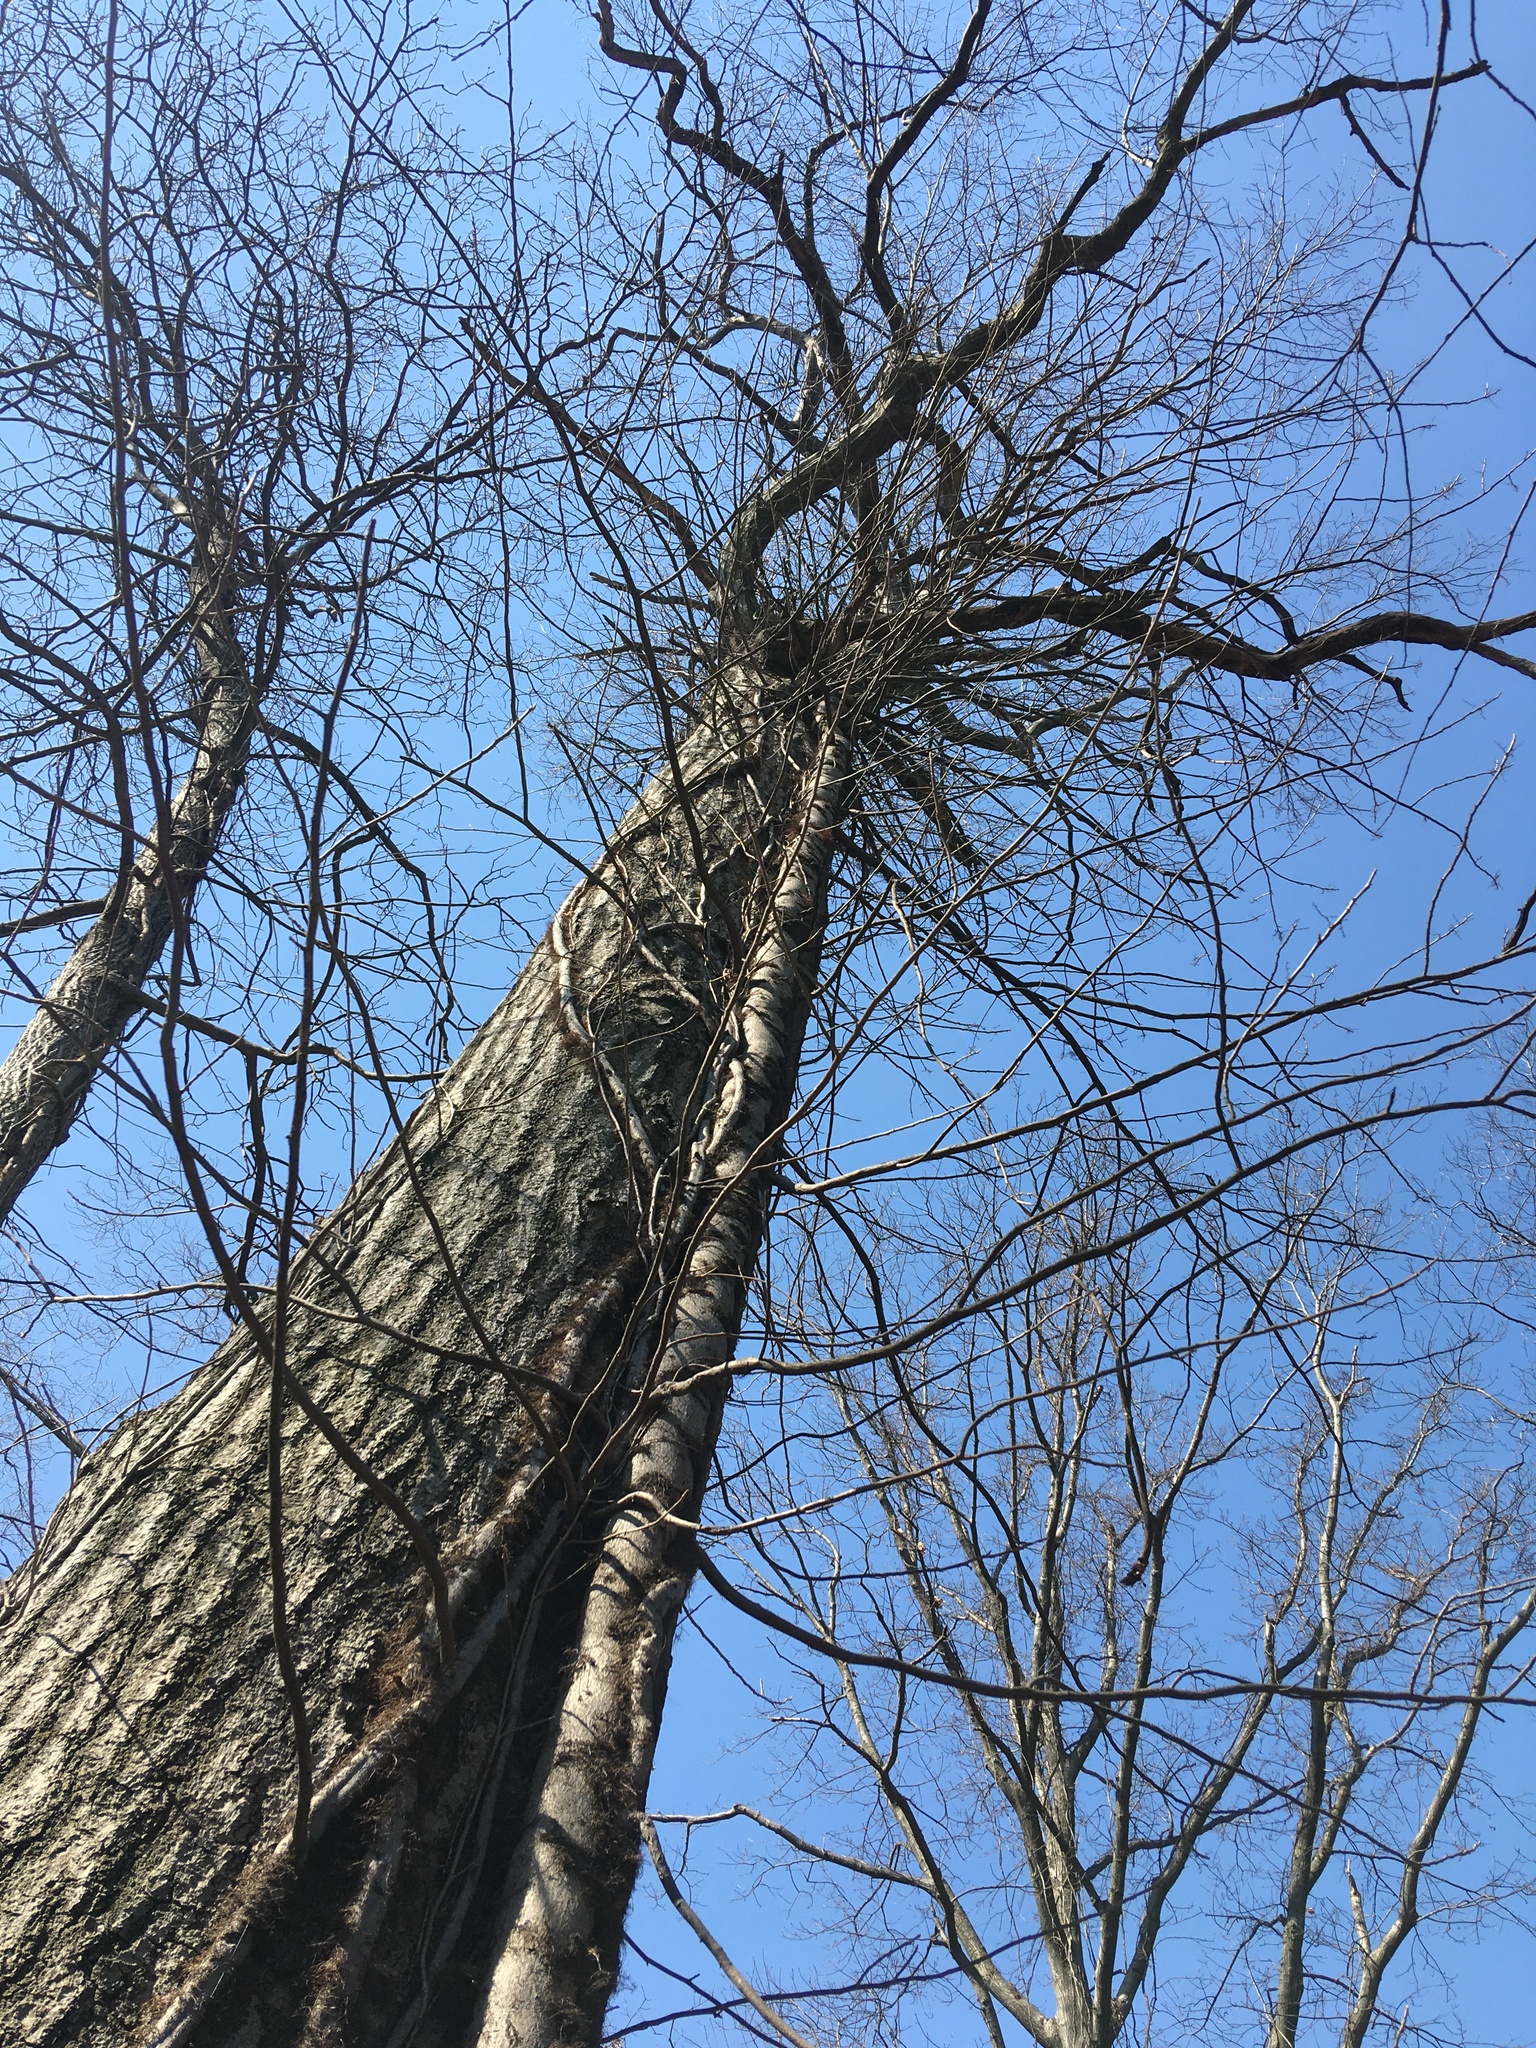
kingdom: Plantae
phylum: Tracheophyta
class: Magnoliopsida
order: Sapindales
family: Anacardiaceae
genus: Toxicodendron
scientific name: Toxicodendron radicans
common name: Poison ivy
